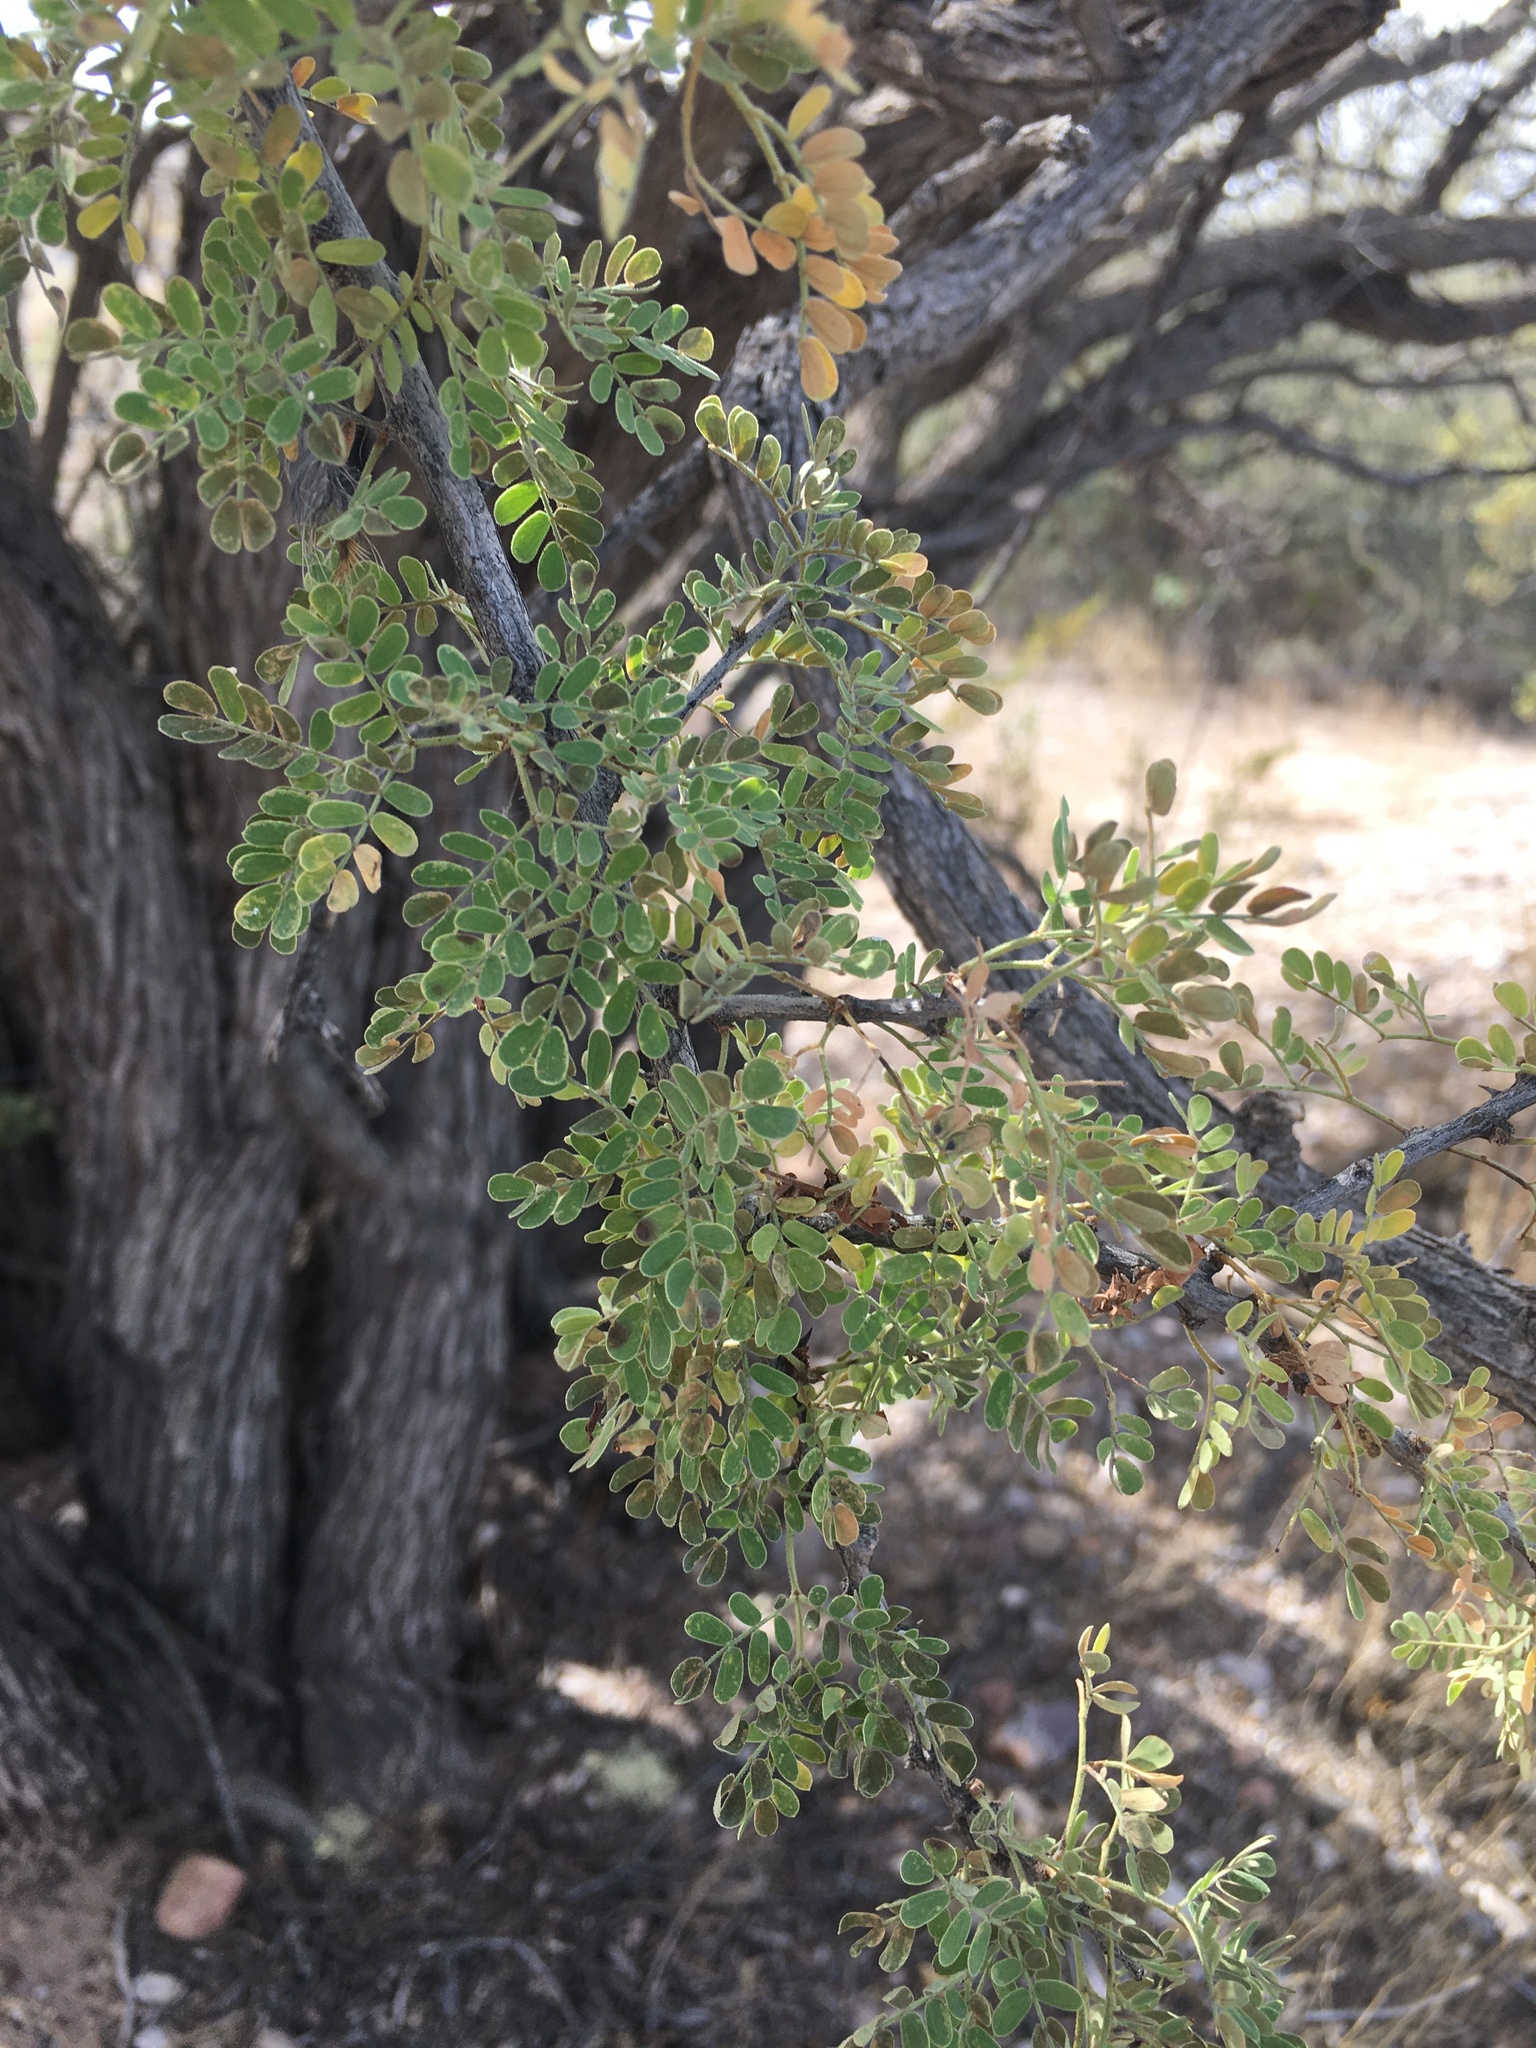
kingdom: Plantae
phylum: Tracheophyta
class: Magnoliopsida
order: Fabales
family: Fabaceae
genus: Senegalia
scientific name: Senegalia greggii
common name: Texas-mimosa
